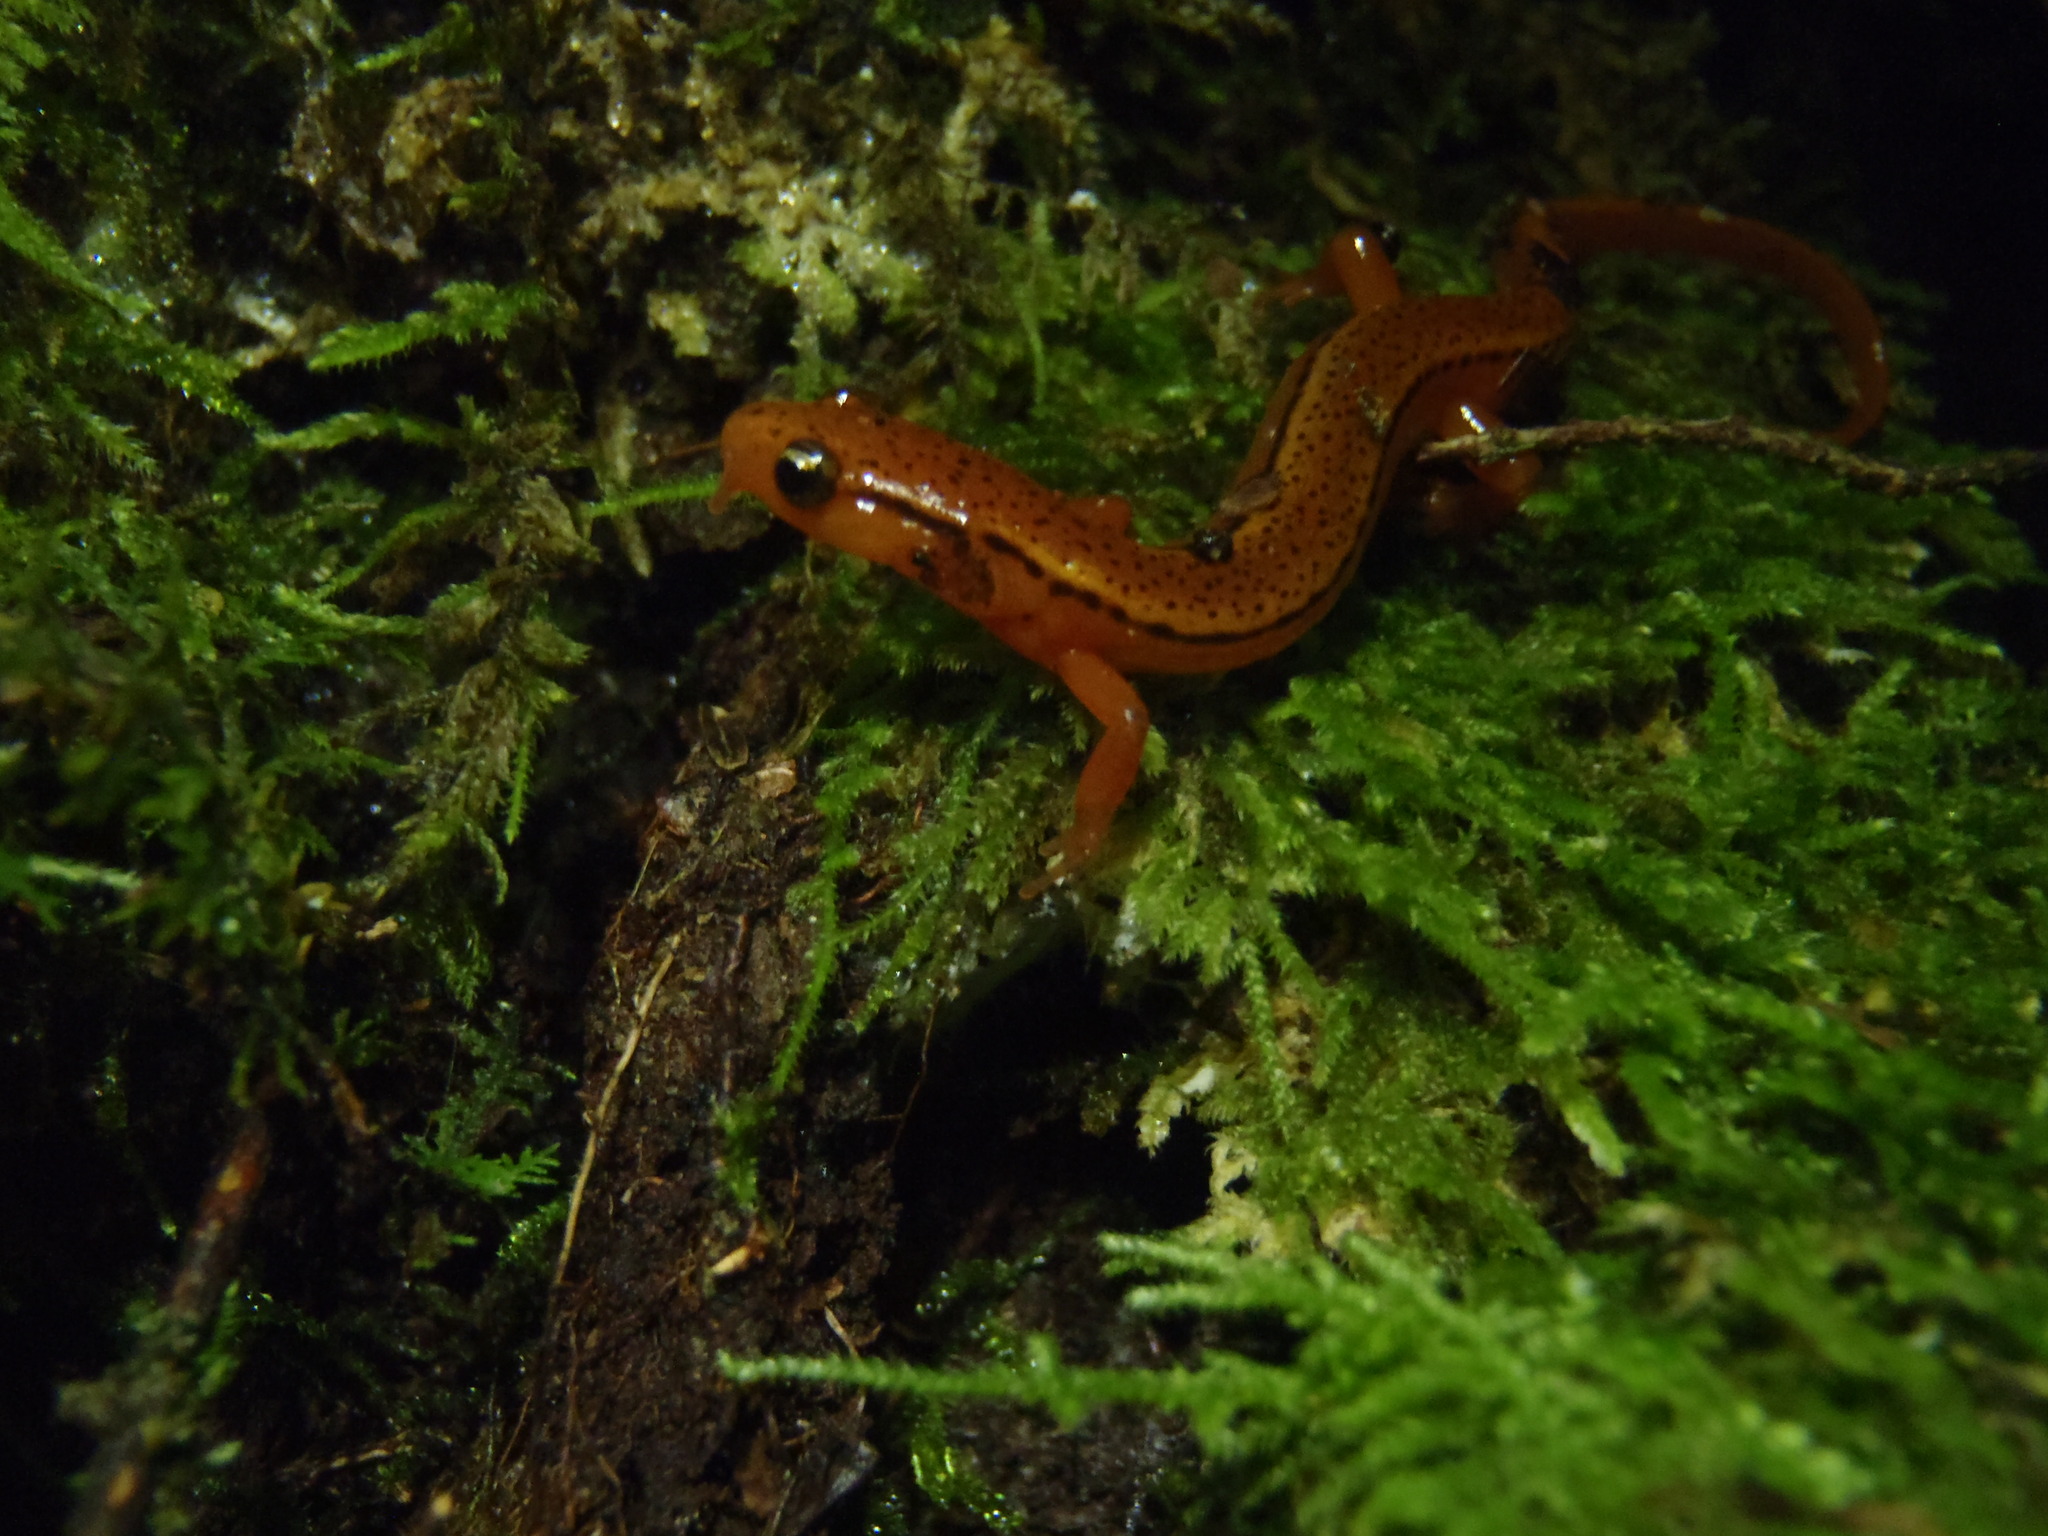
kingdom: Animalia
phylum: Chordata
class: Amphibia
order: Caudata
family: Plethodontidae
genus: Eurycea
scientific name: Eurycea wilderae
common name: Blue ridge two-lined salamander
